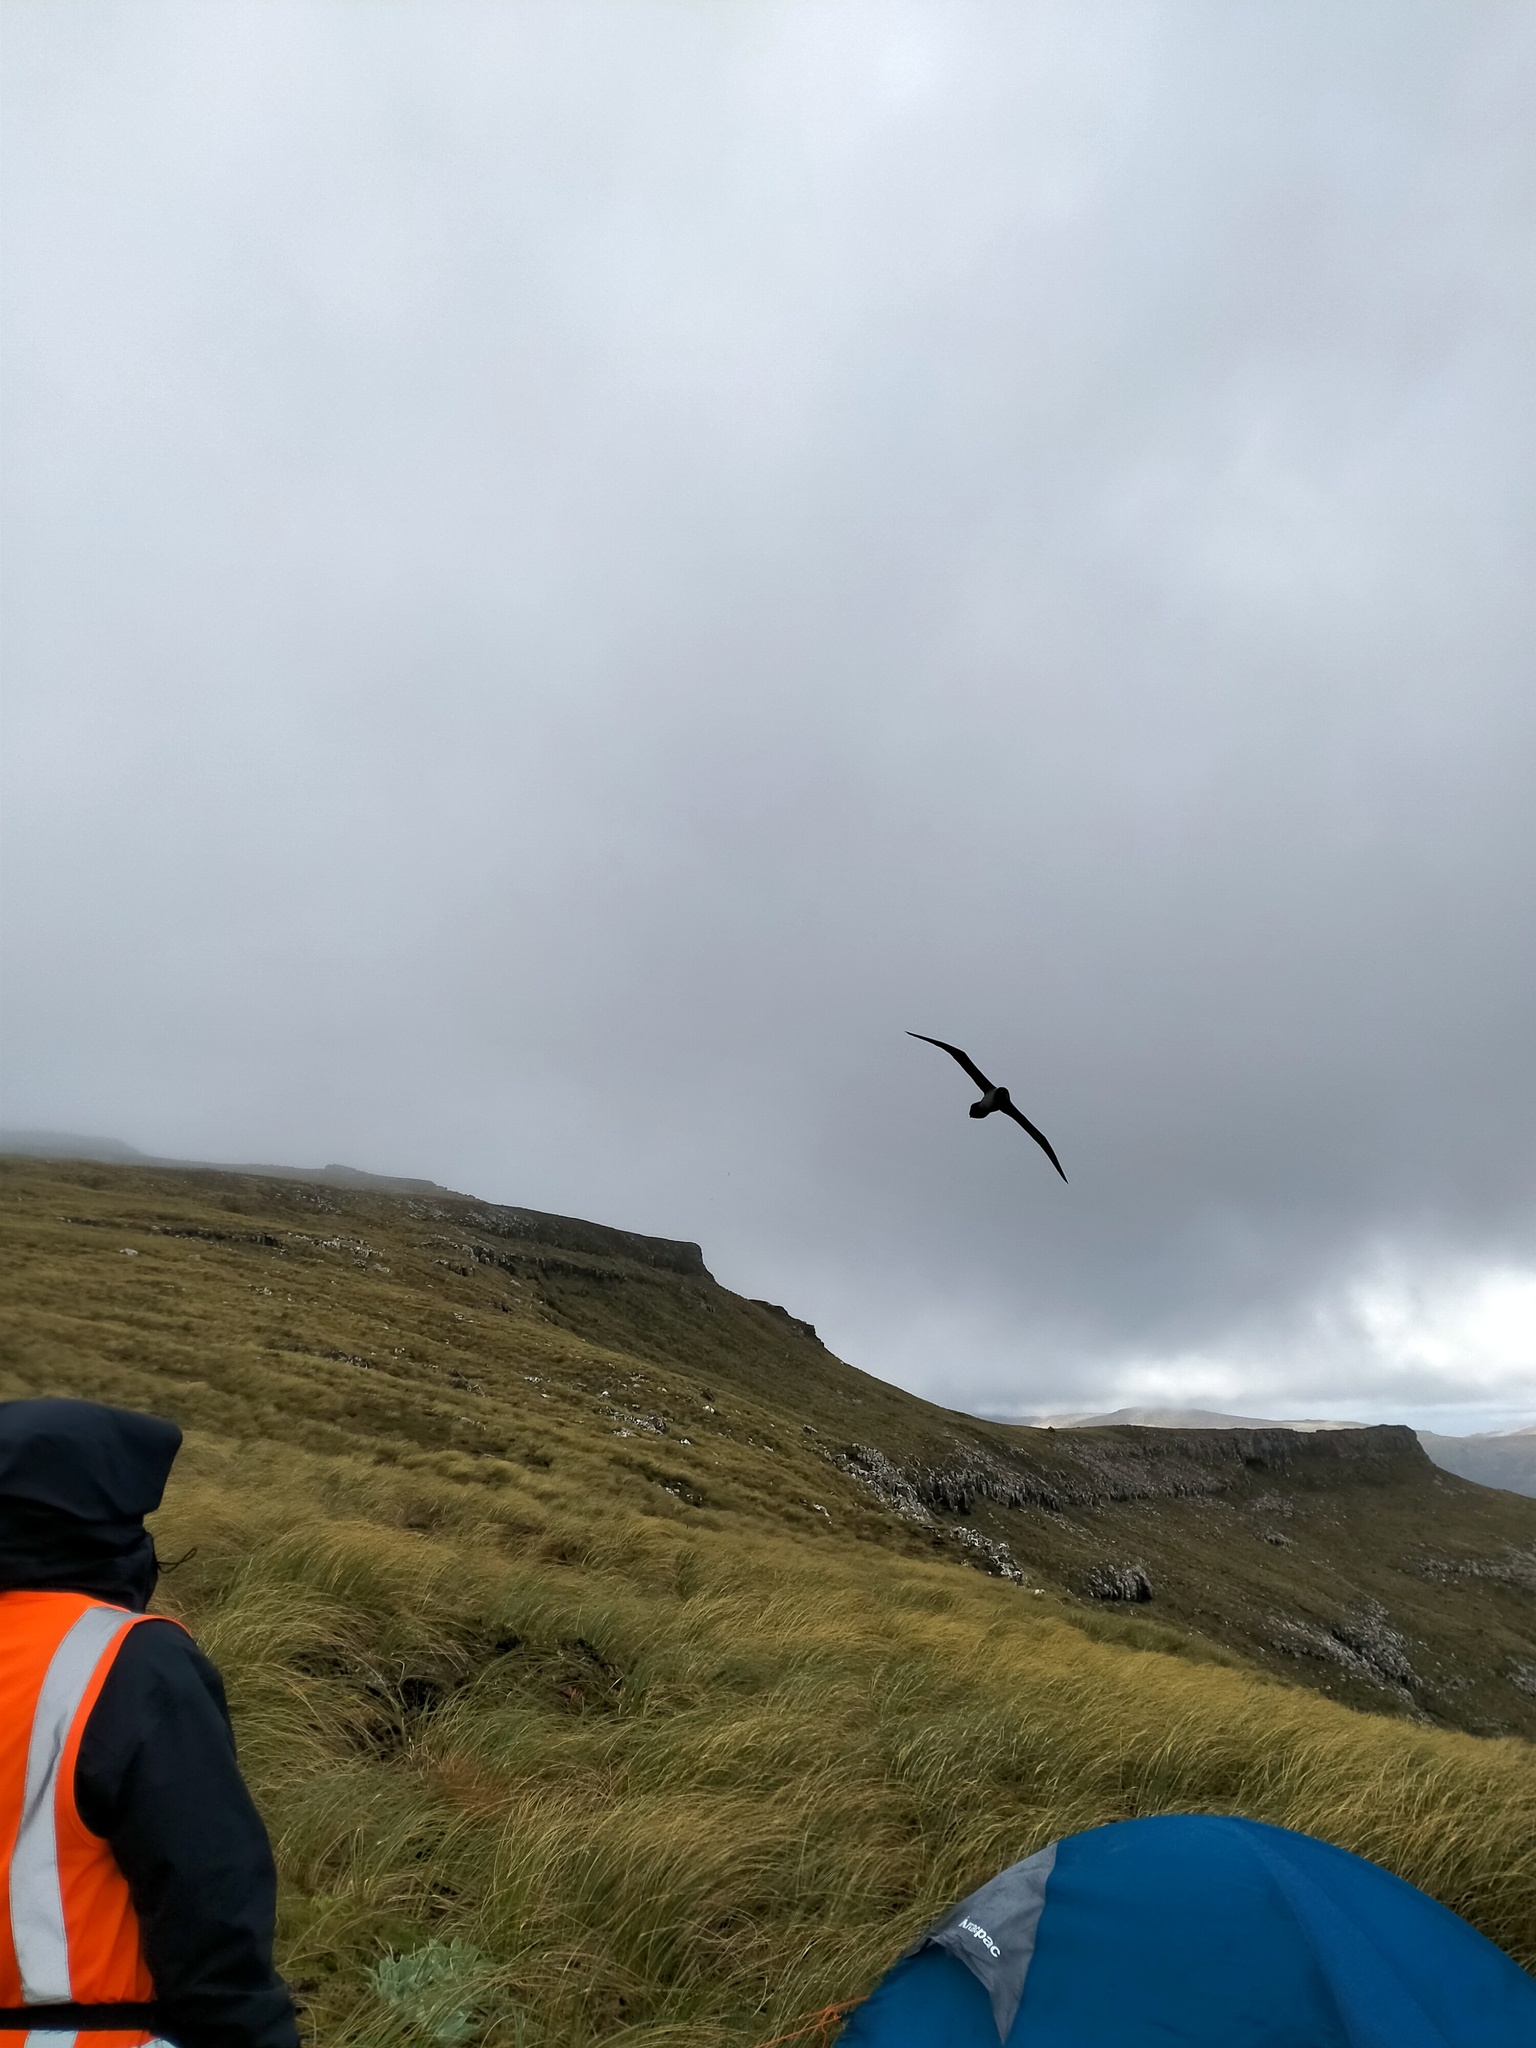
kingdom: Animalia
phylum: Chordata
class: Aves
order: Procellariiformes
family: Diomedeidae
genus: Phoebetria
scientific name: Phoebetria palpebrata
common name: Light-mantled albatross
